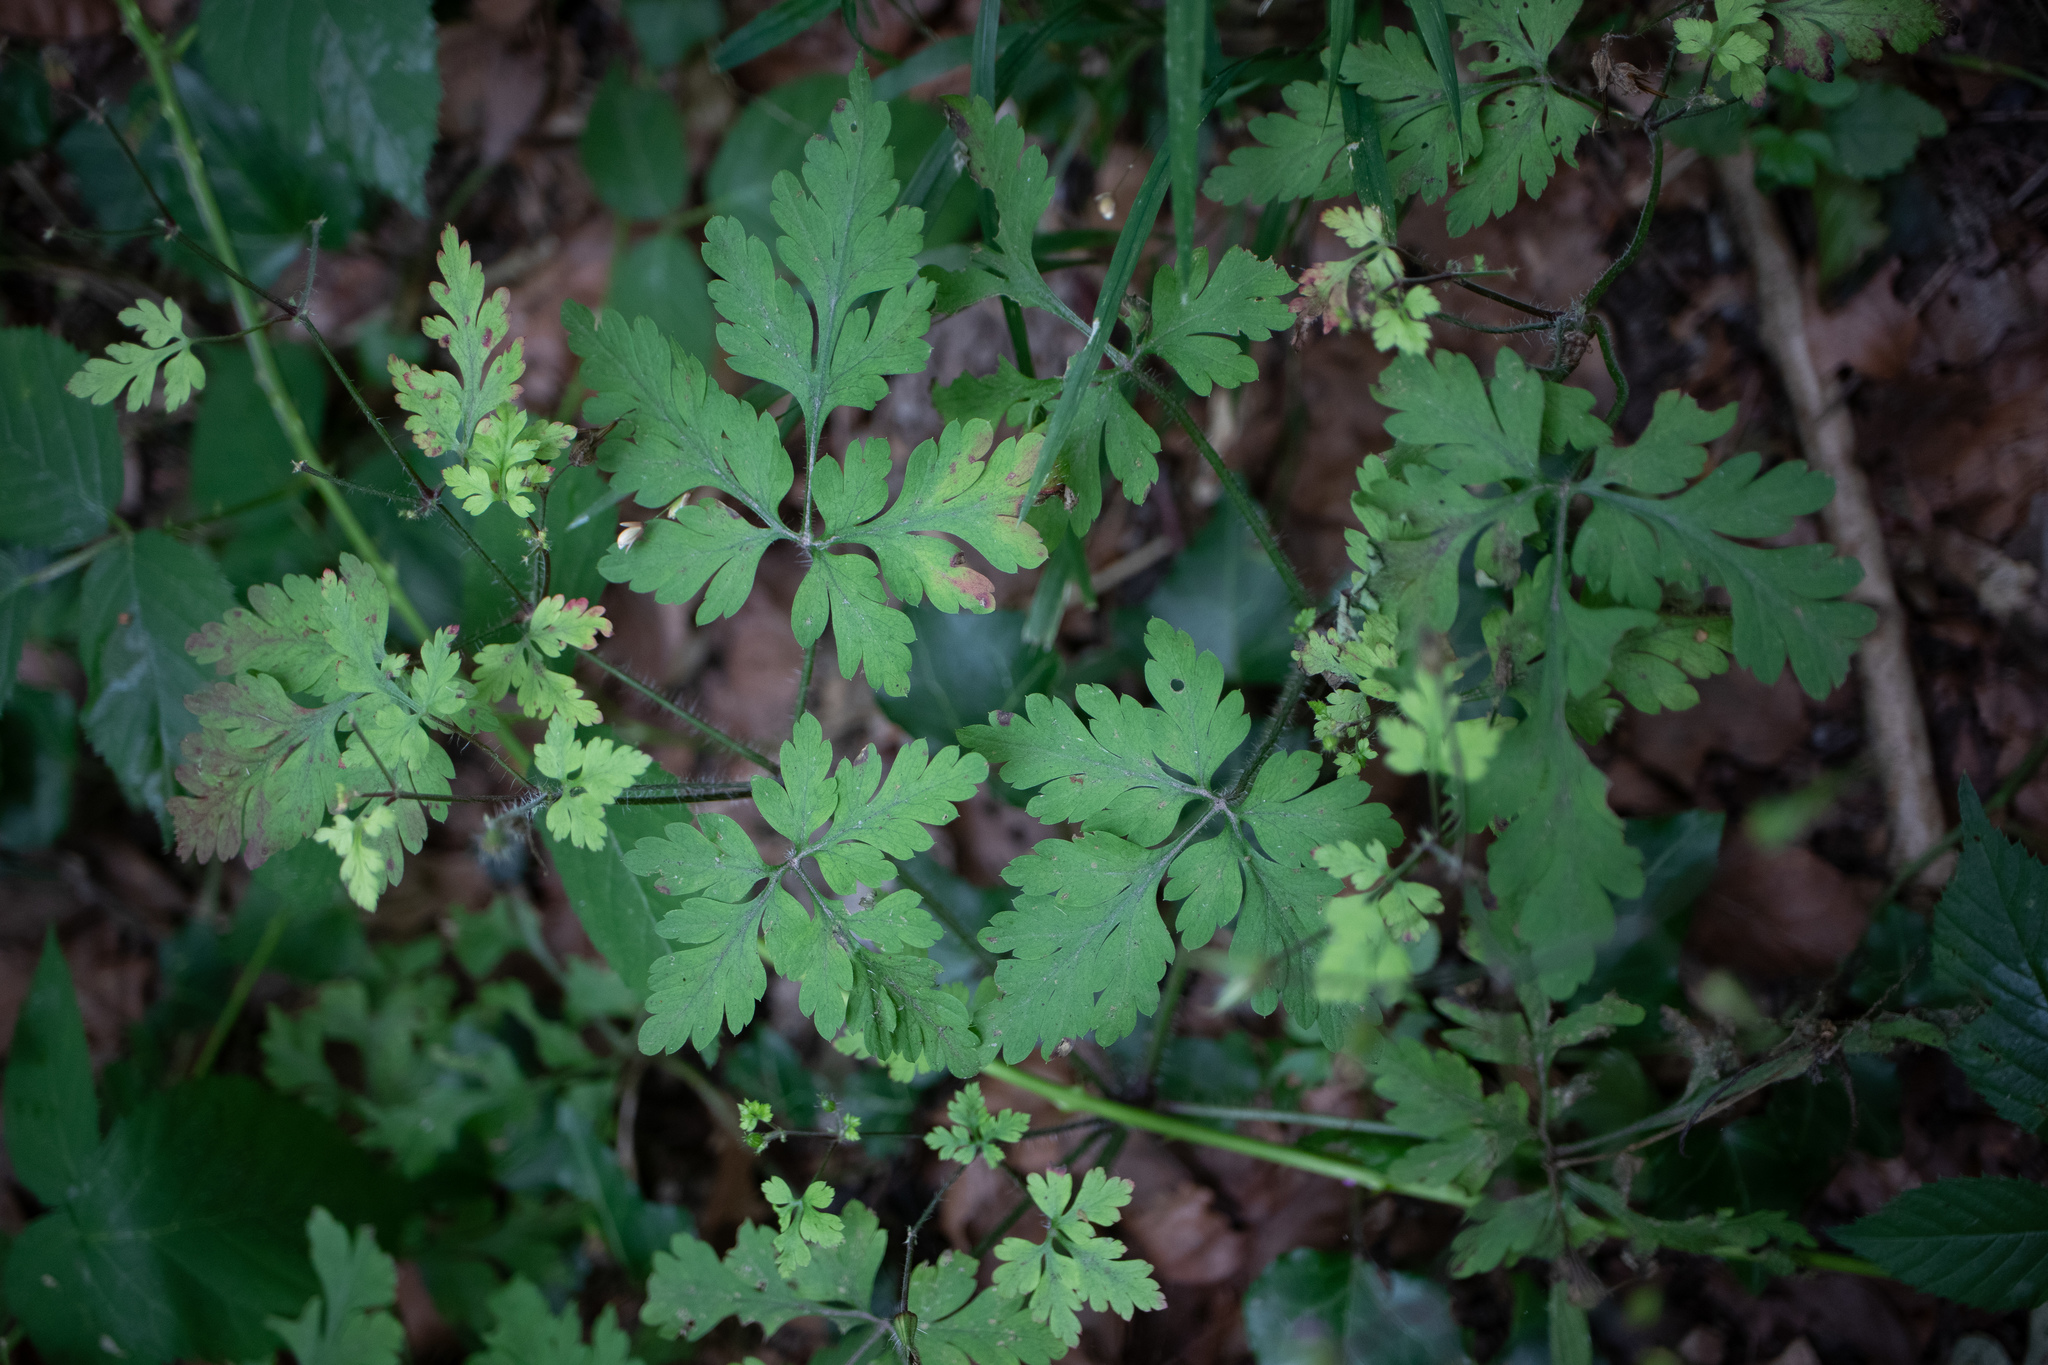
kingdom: Plantae
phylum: Tracheophyta
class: Magnoliopsida
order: Geraniales
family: Geraniaceae
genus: Geranium
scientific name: Geranium robertianum
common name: Herb-robert
